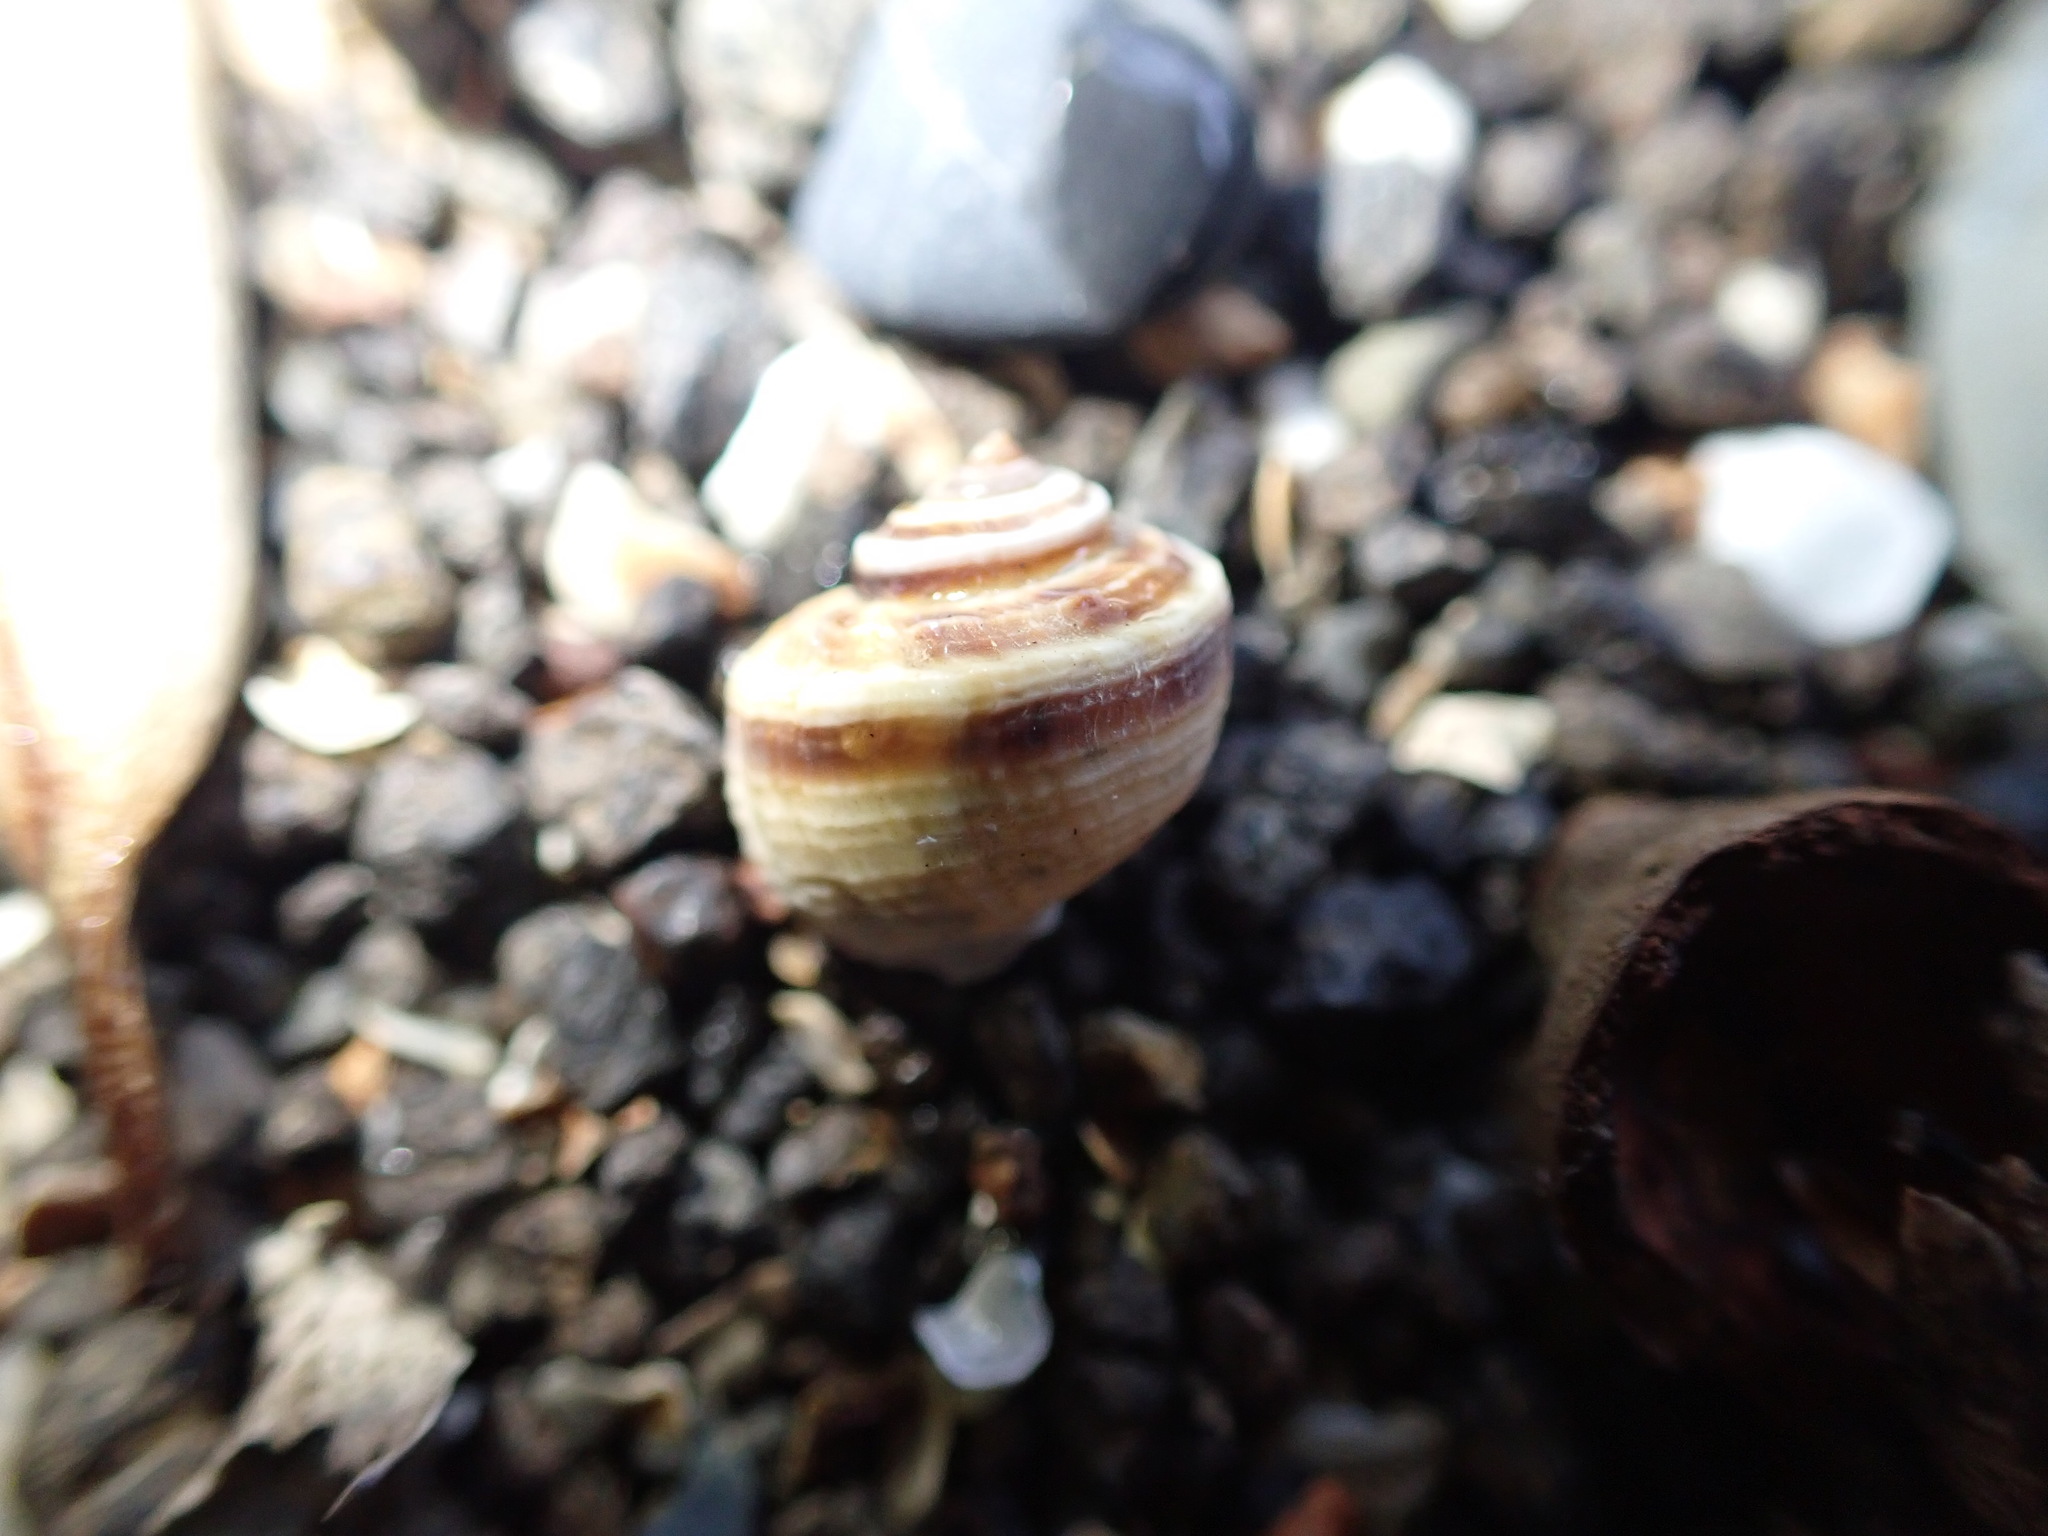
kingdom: Animalia
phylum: Mollusca
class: Gastropoda
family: Amphibolidae
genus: Amphibola
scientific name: Amphibola crenata
